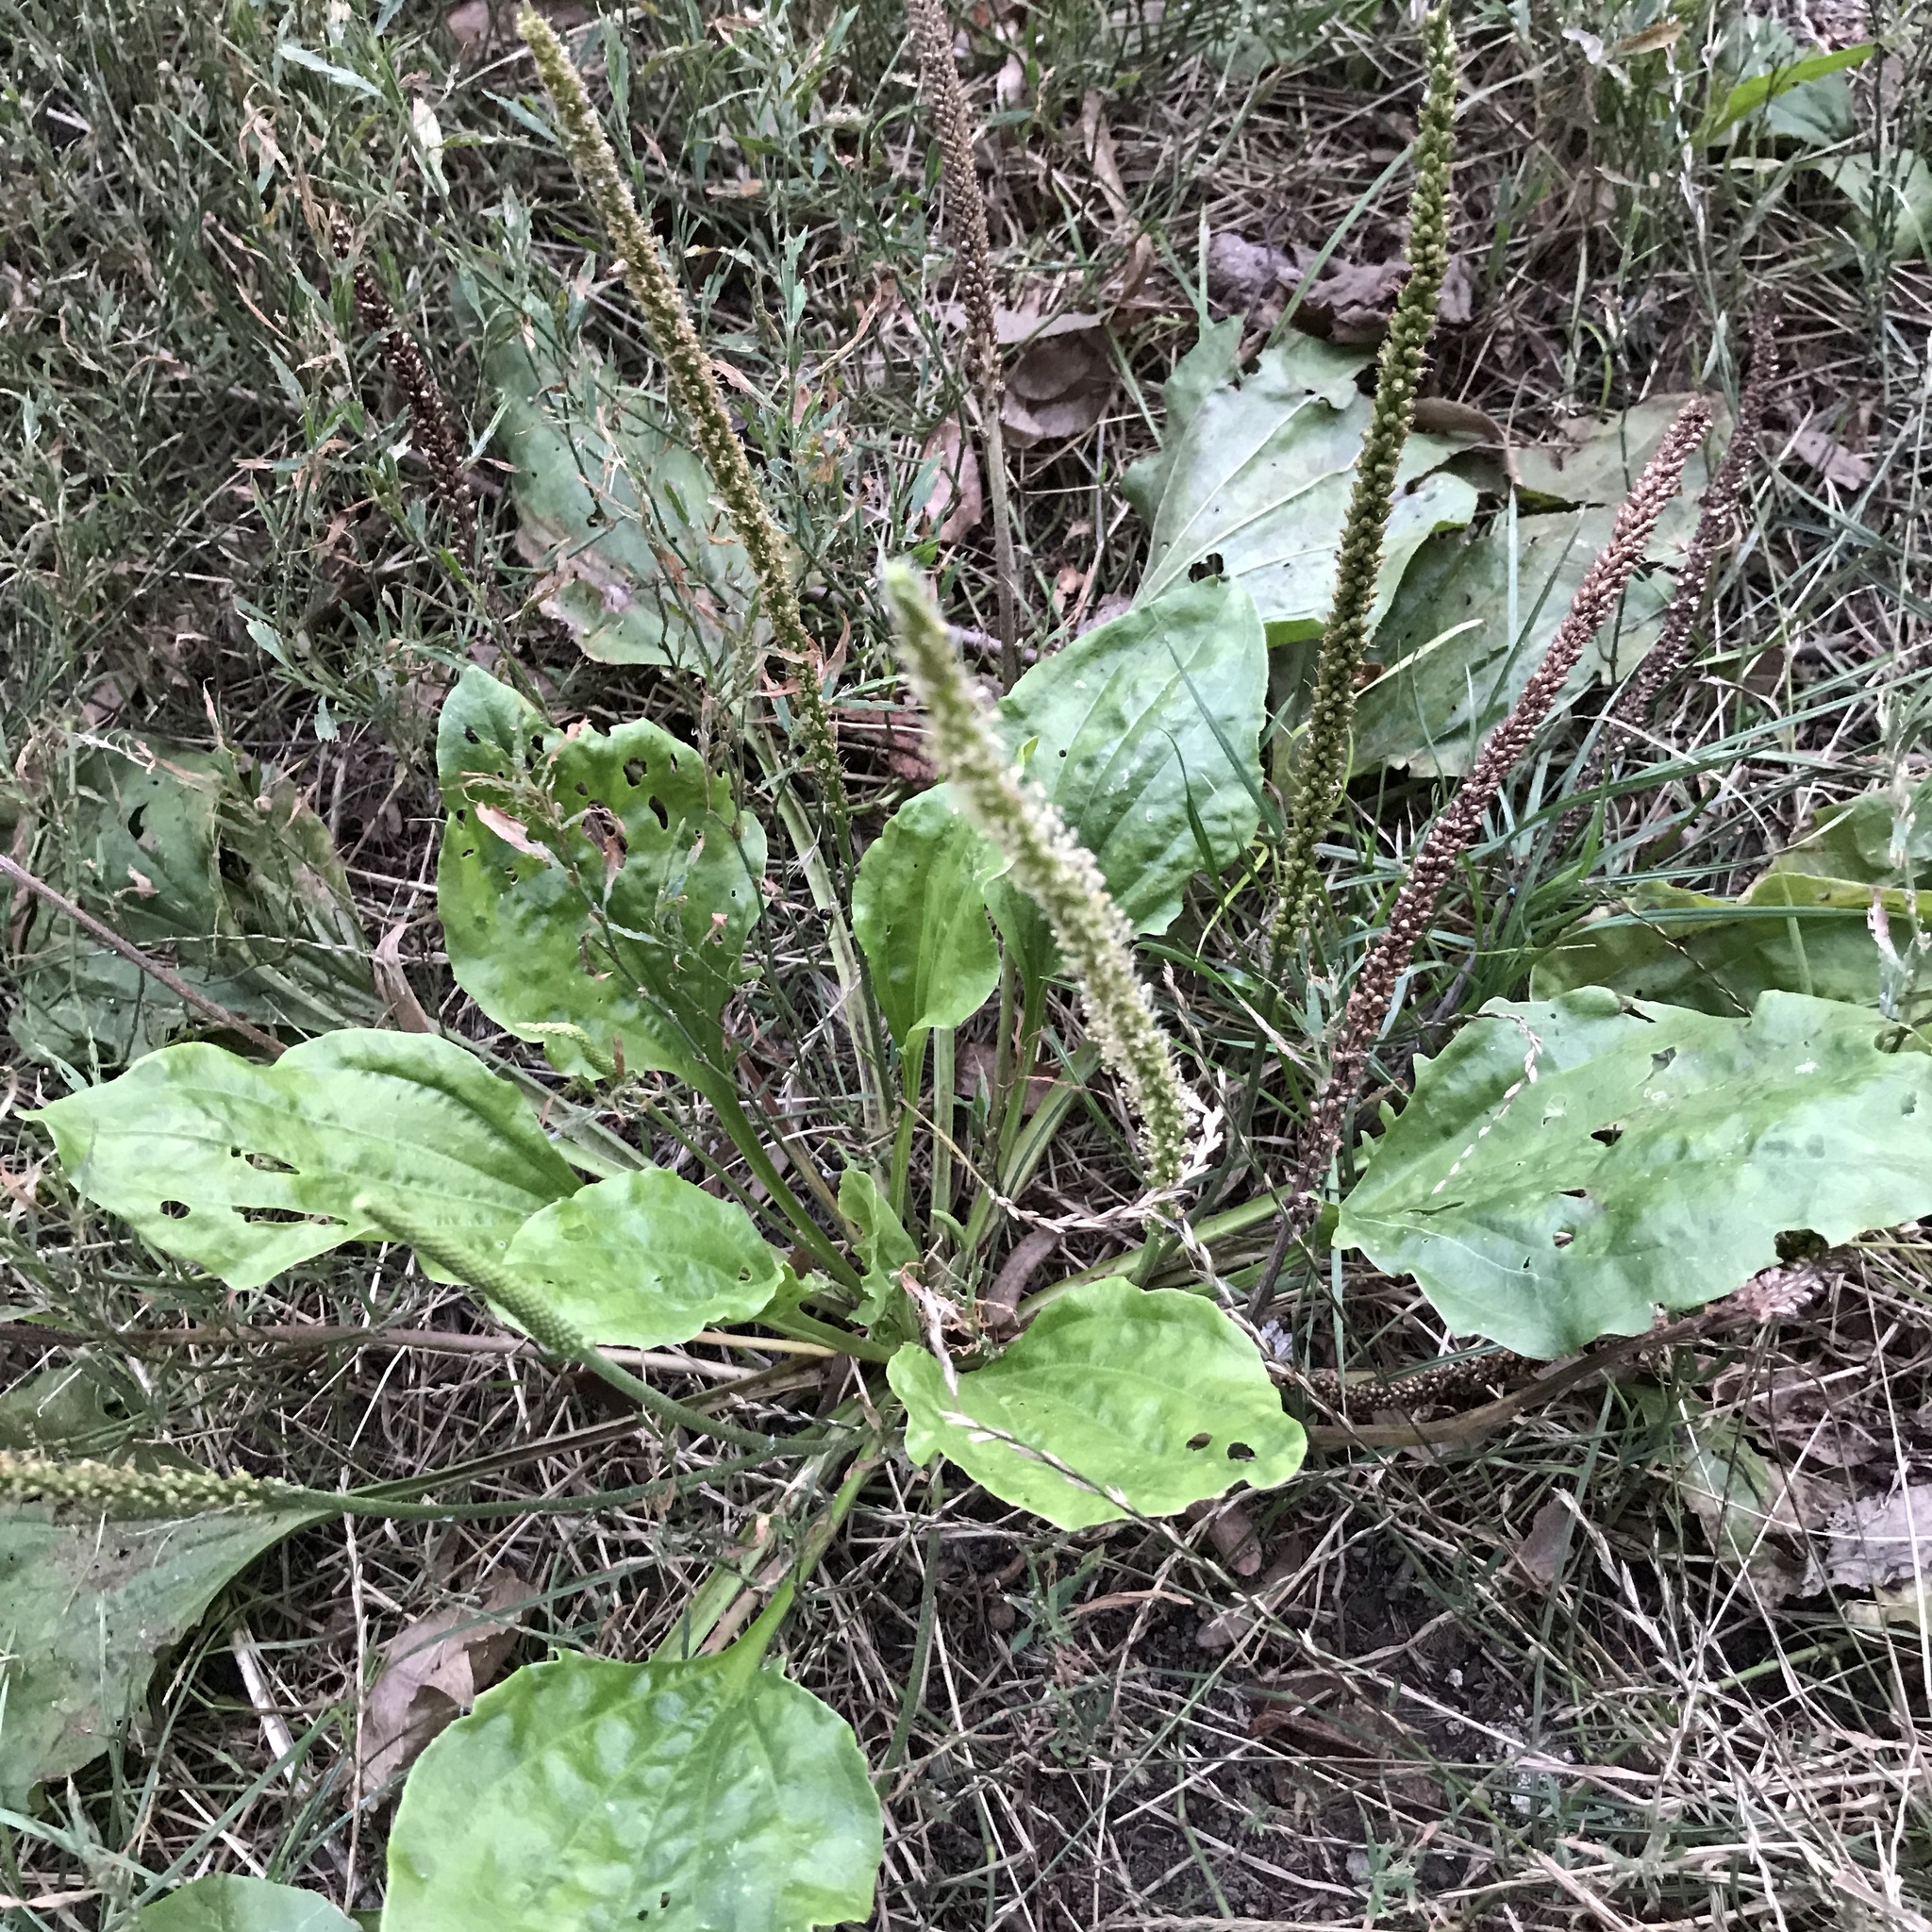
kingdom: Plantae
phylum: Tracheophyta
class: Magnoliopsida
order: Lamiales
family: Plantaginaceae
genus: Plantago
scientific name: Plantago major
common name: Common plantain
